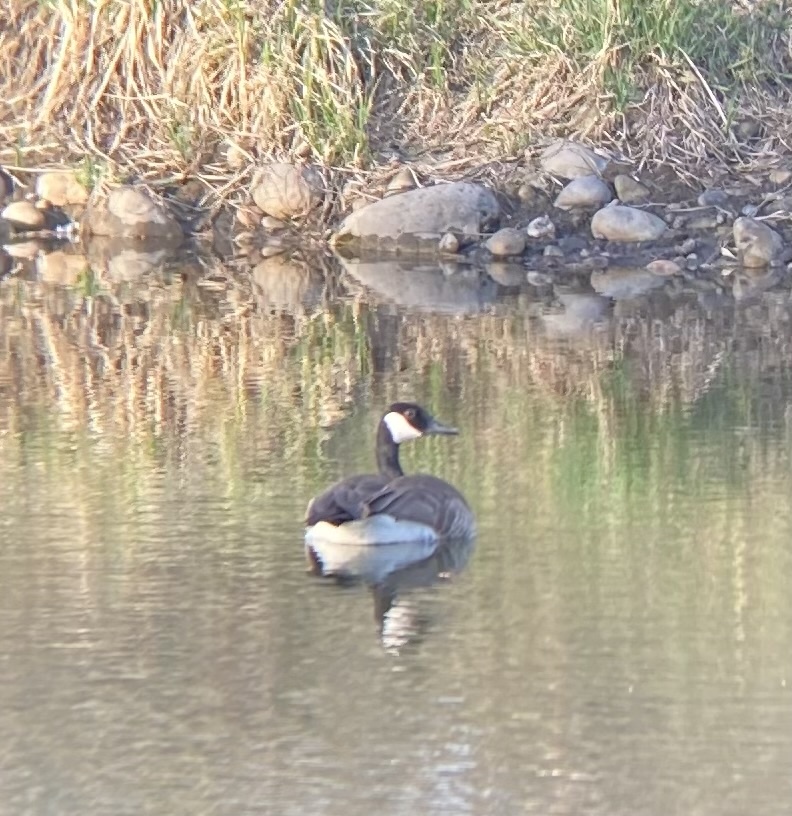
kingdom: Animalia
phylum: Chordata
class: Aves
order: Anseriformes
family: Anatidae
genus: Branta
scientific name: Branta canadensis
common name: Canada goose
